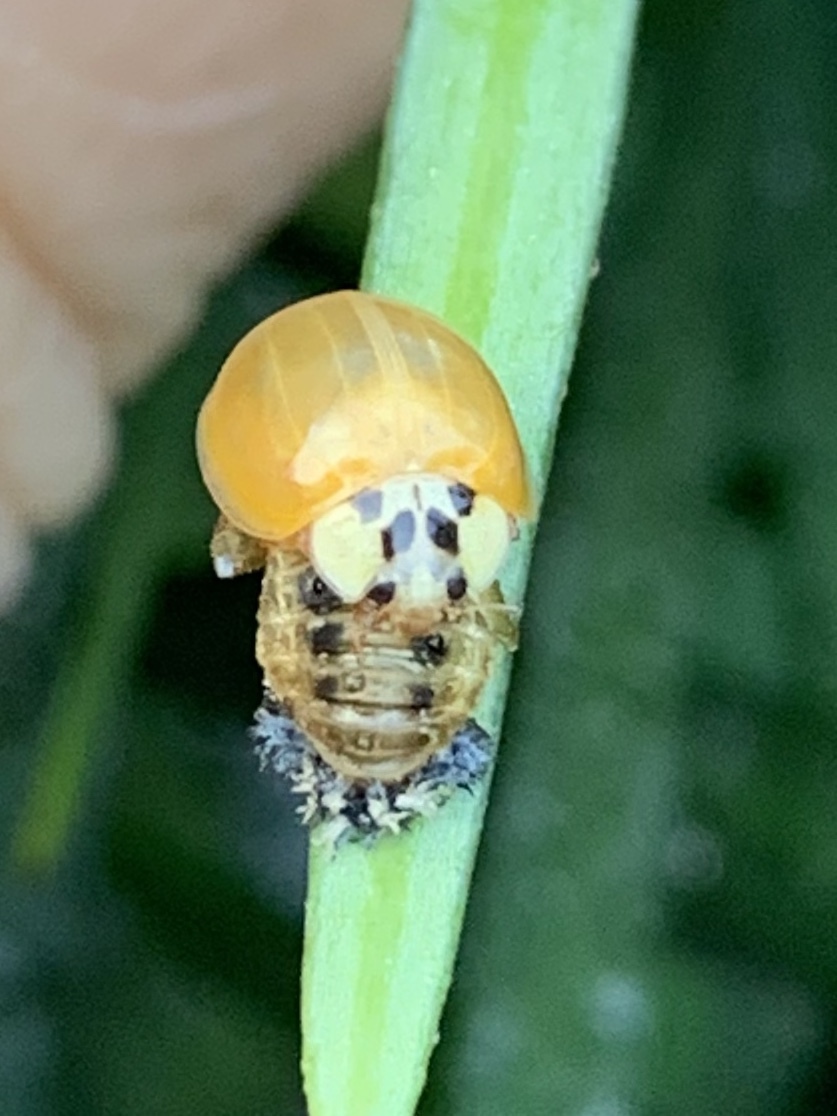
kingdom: Animalia
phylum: Arthropoda
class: Insecta
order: Coleoptera
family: Coccinellidae
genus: Harmonia
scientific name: Harmonia axyridis
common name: Harlequin ladybird
